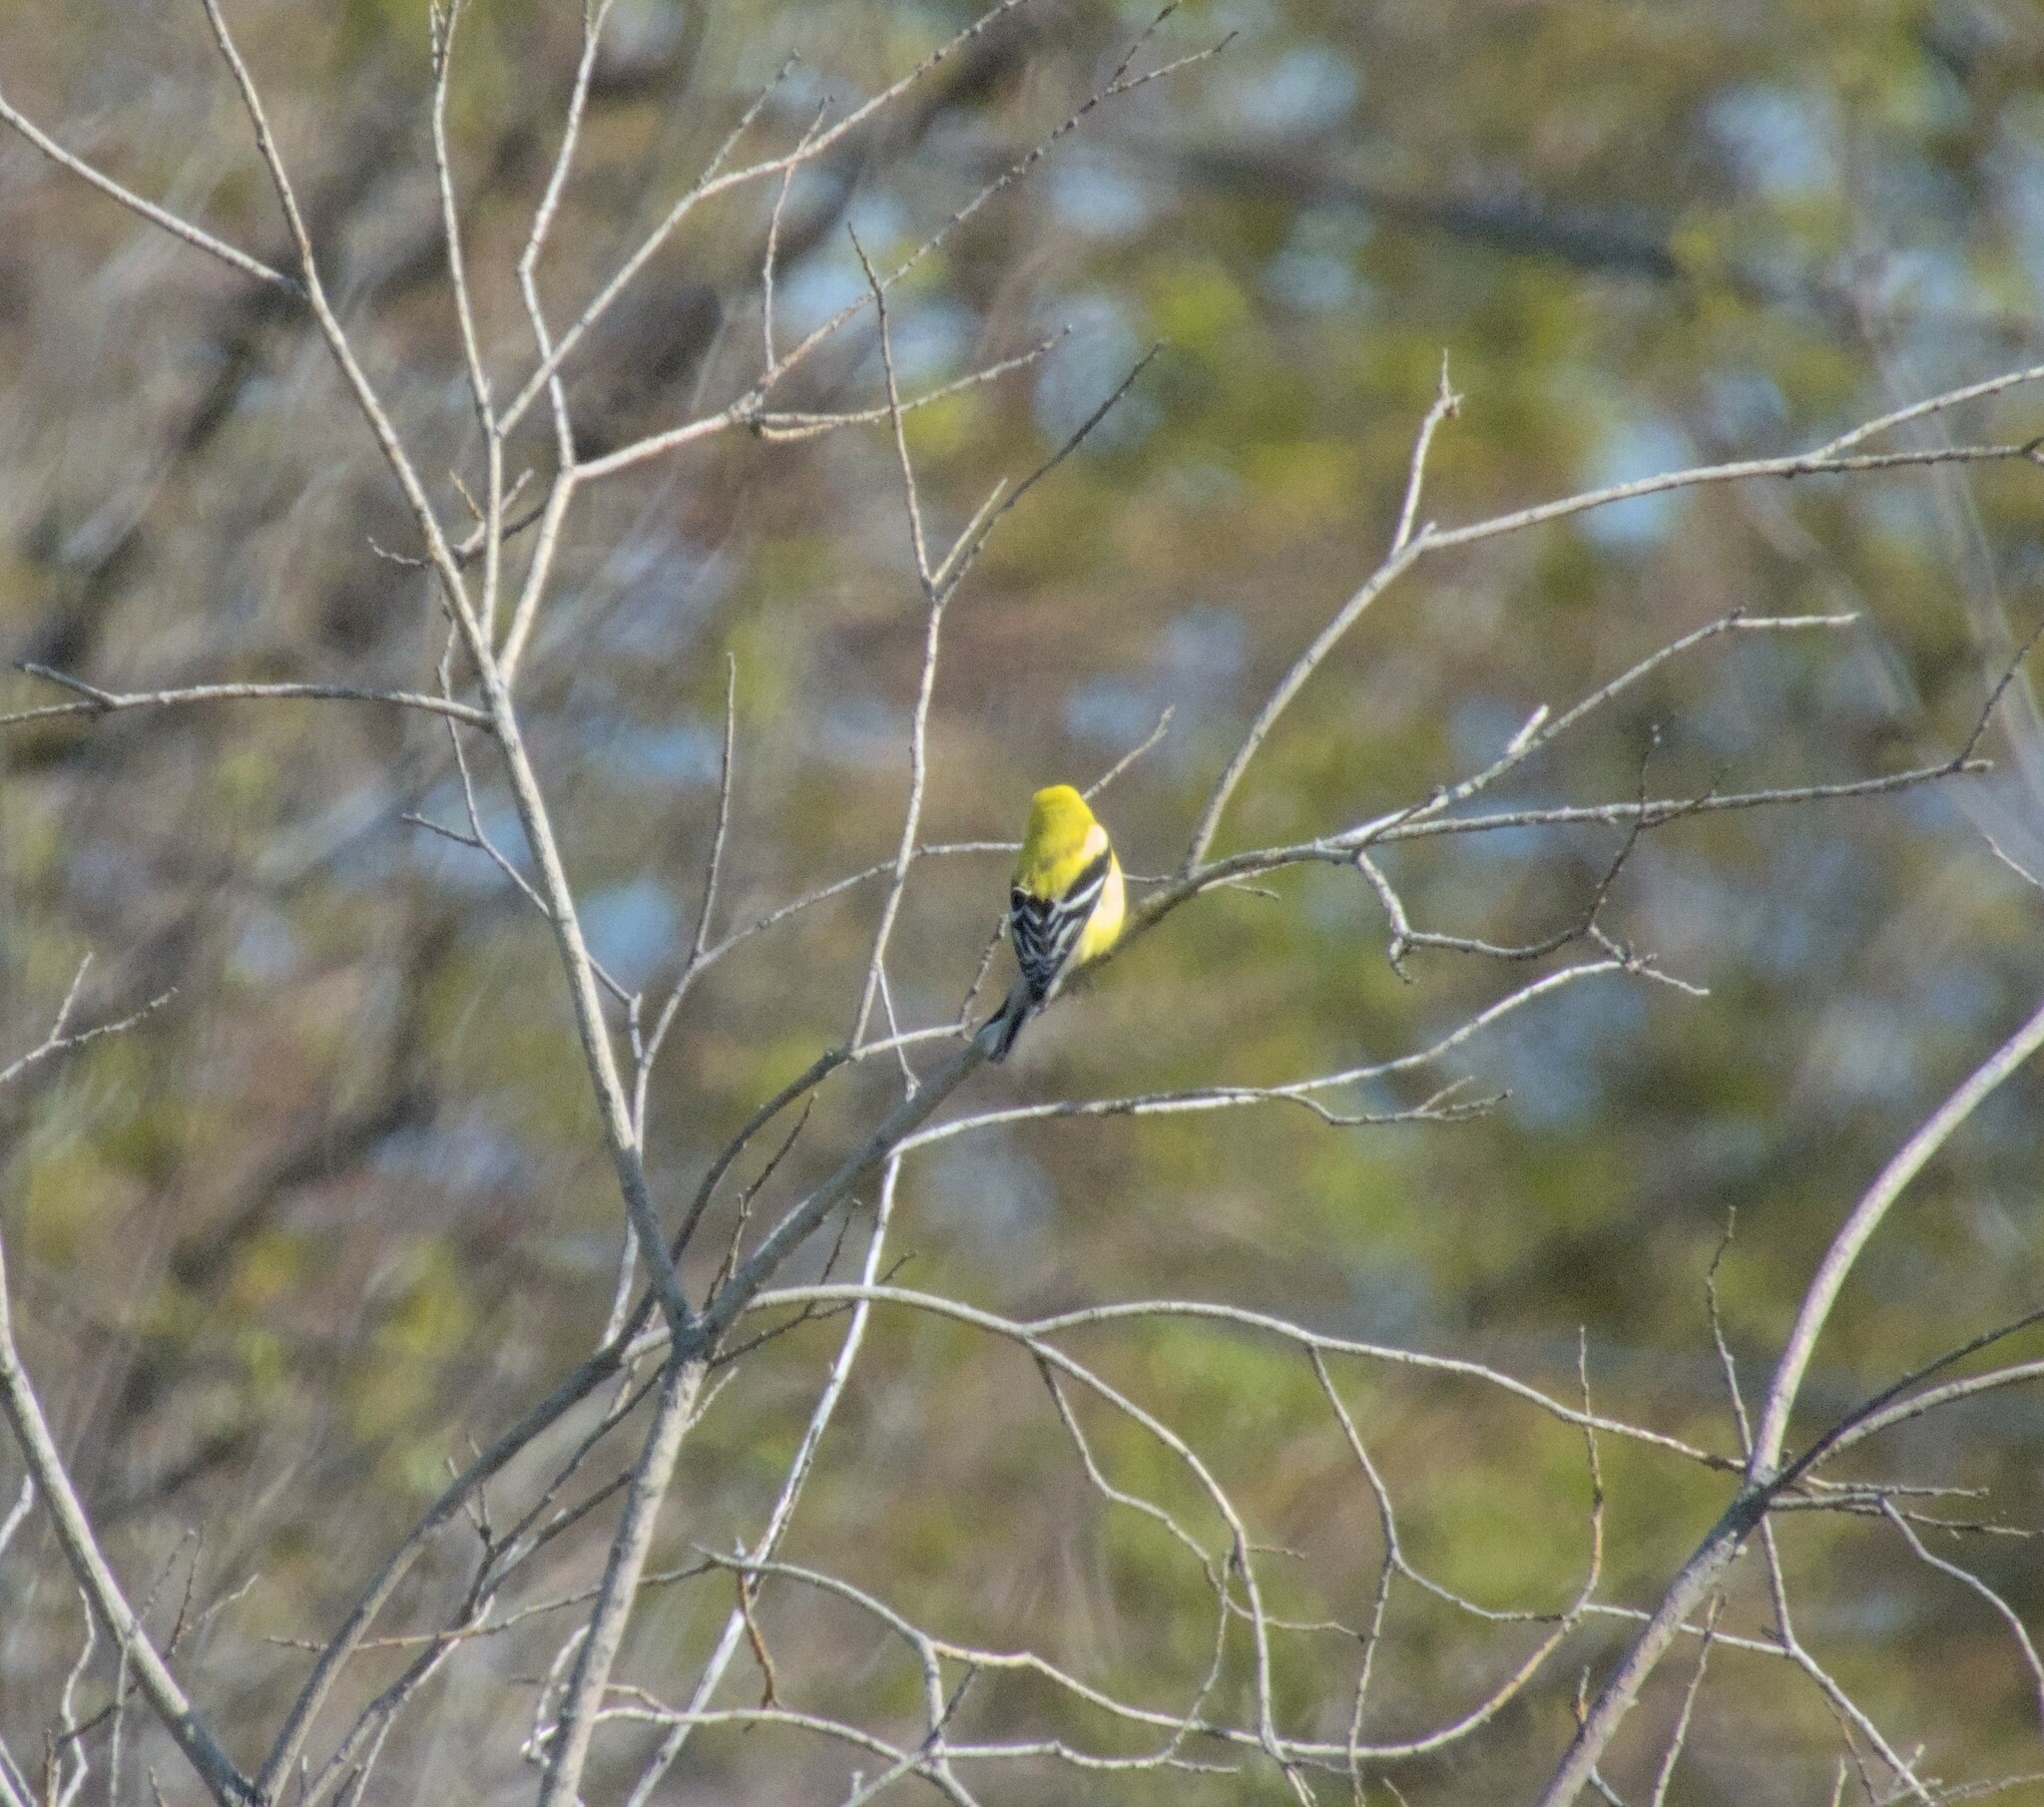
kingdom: Animalia
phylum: Chordata
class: Aves
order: Passeriformes
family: Fringillidae
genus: Spinus
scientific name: Spinus tristis
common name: American goldfinch
